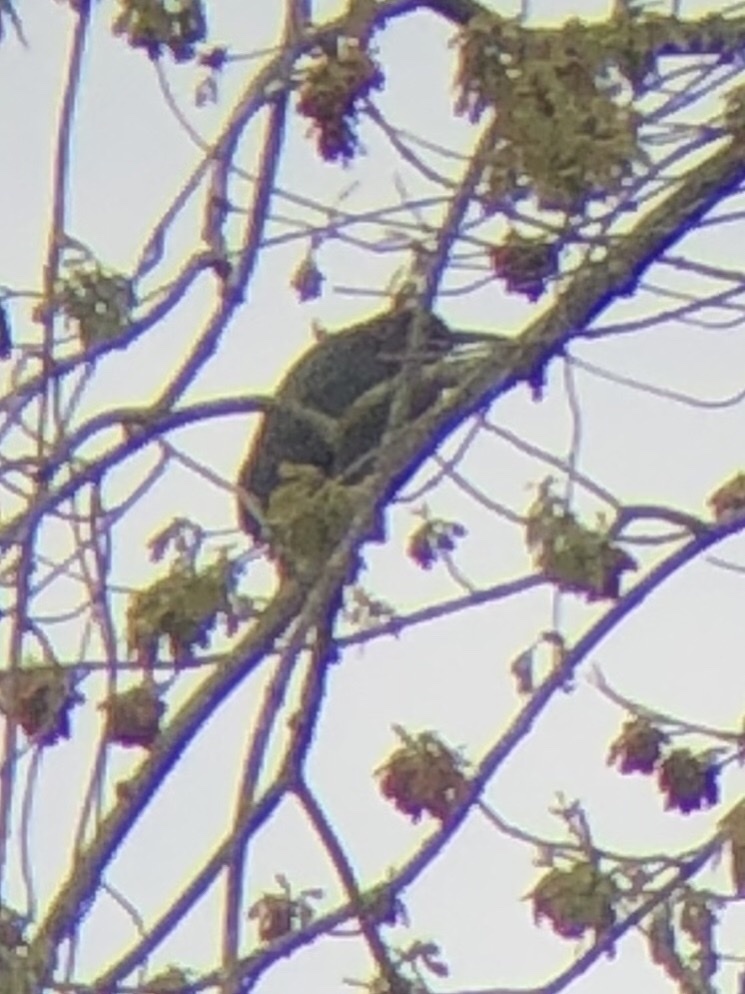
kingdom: Animalia
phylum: Chordata
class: Aves
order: Pelecaniformes
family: Ardeidae
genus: Butorides
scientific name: Butorides virescens
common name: Green heron
